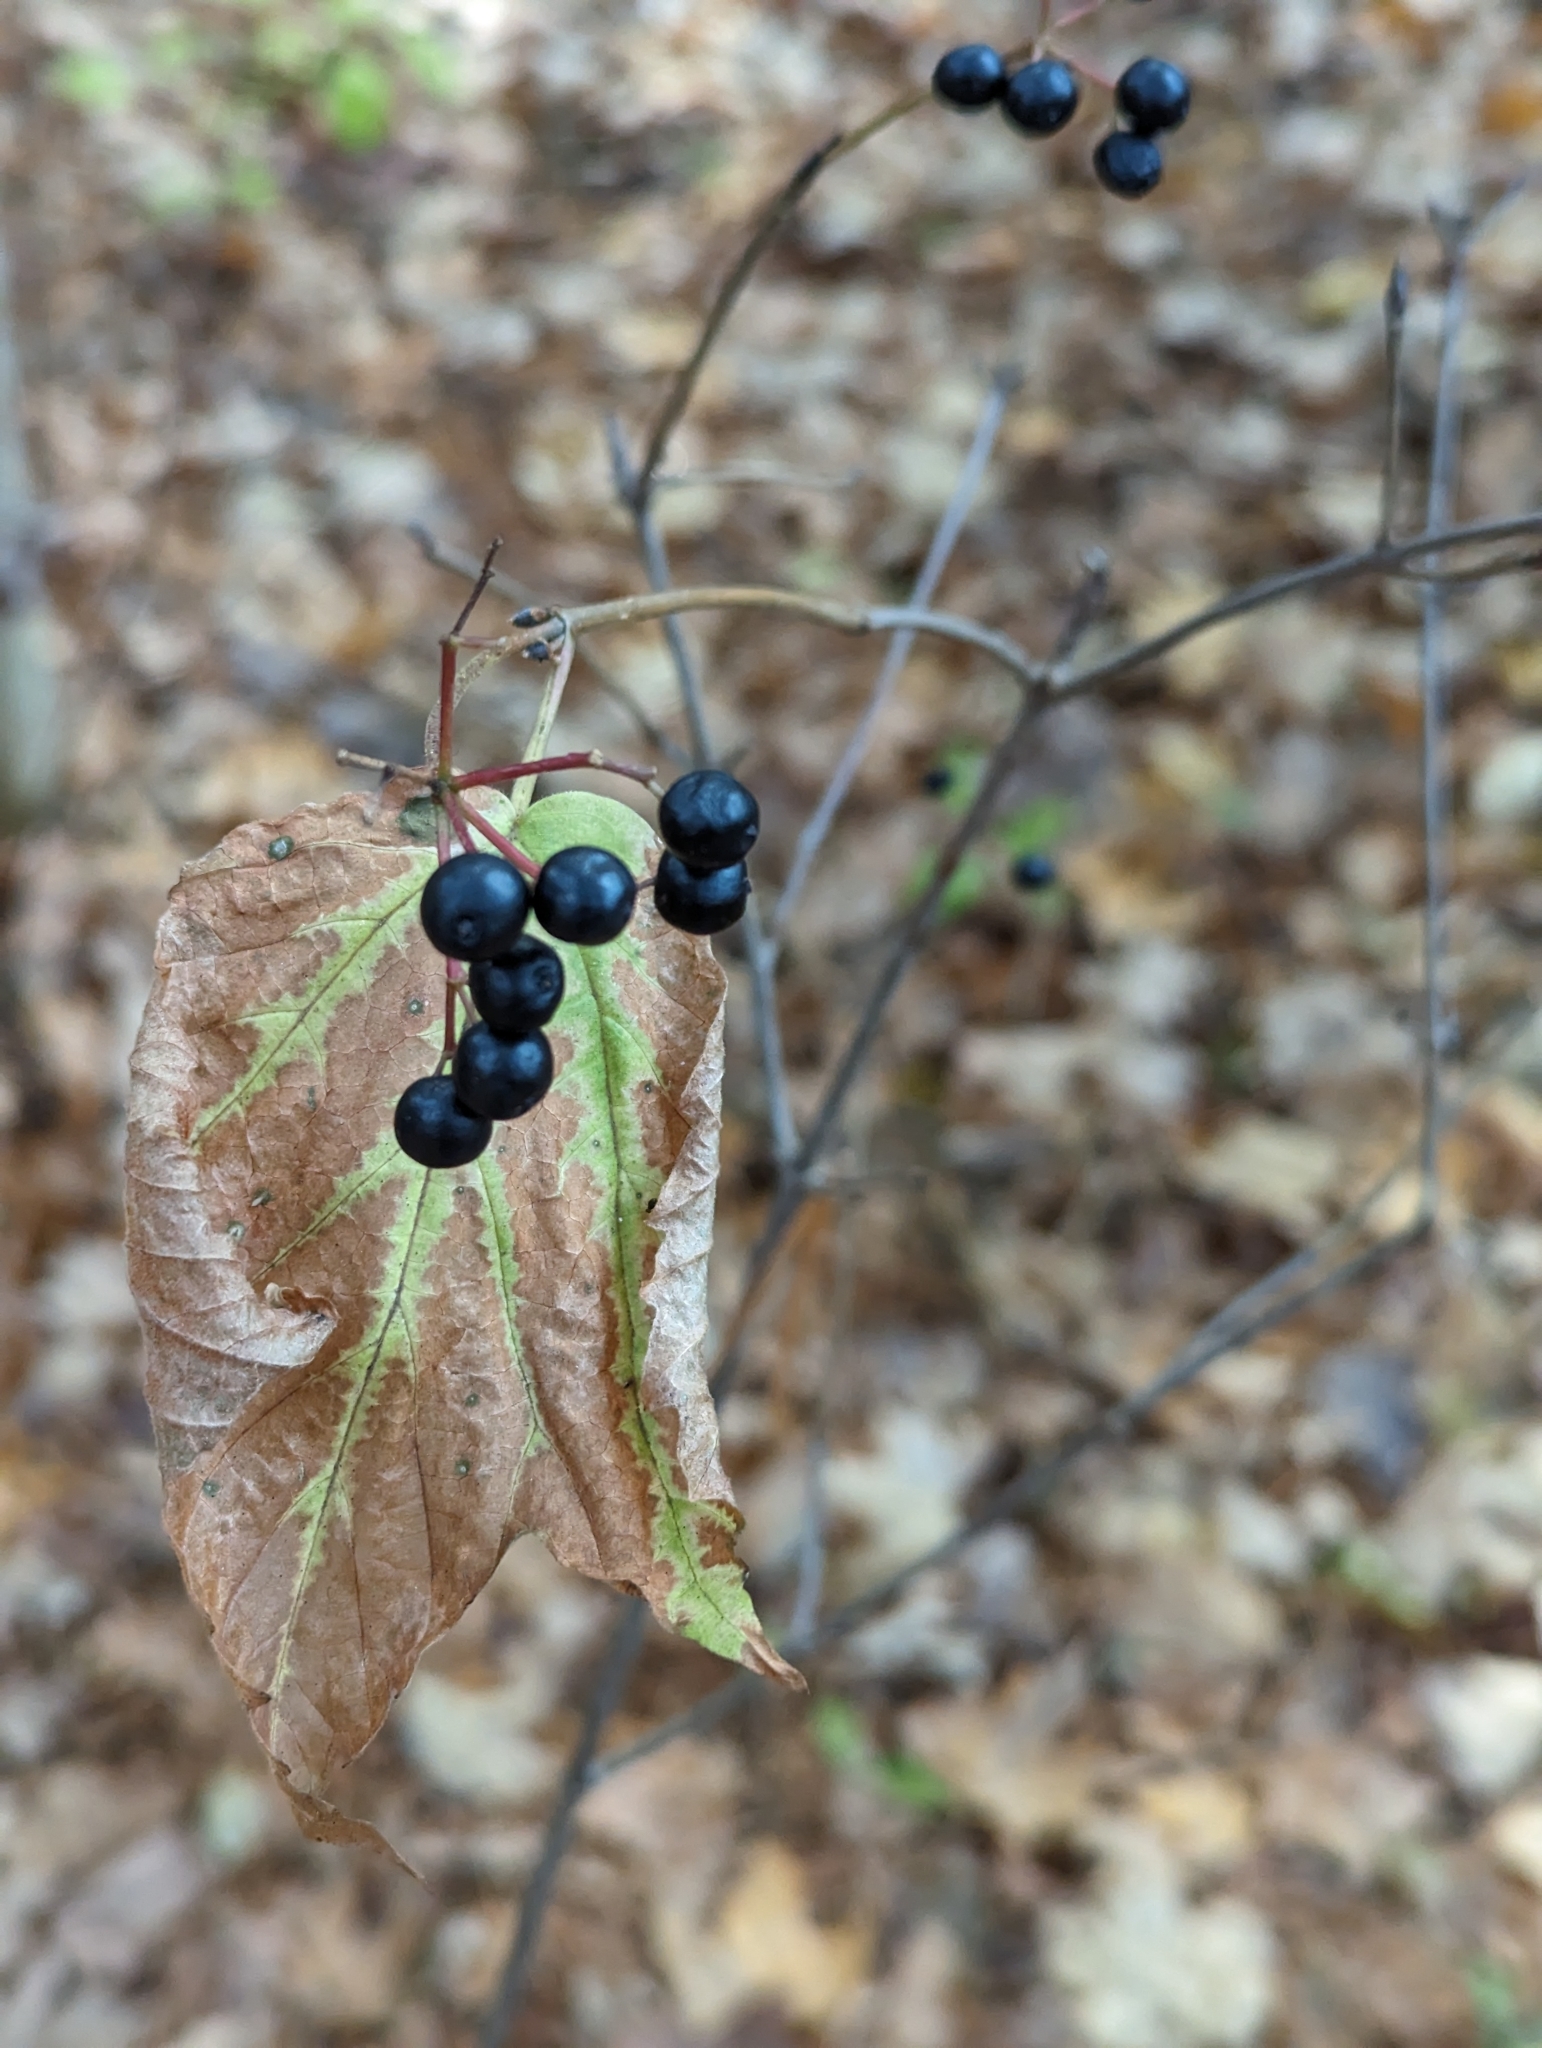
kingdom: Plantae
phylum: Tracheophyta
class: Magnoliopsida
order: Dipsacales
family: Viburnaceae
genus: Viburnum
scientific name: Viburnum acerifolium
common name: Dockmackie
